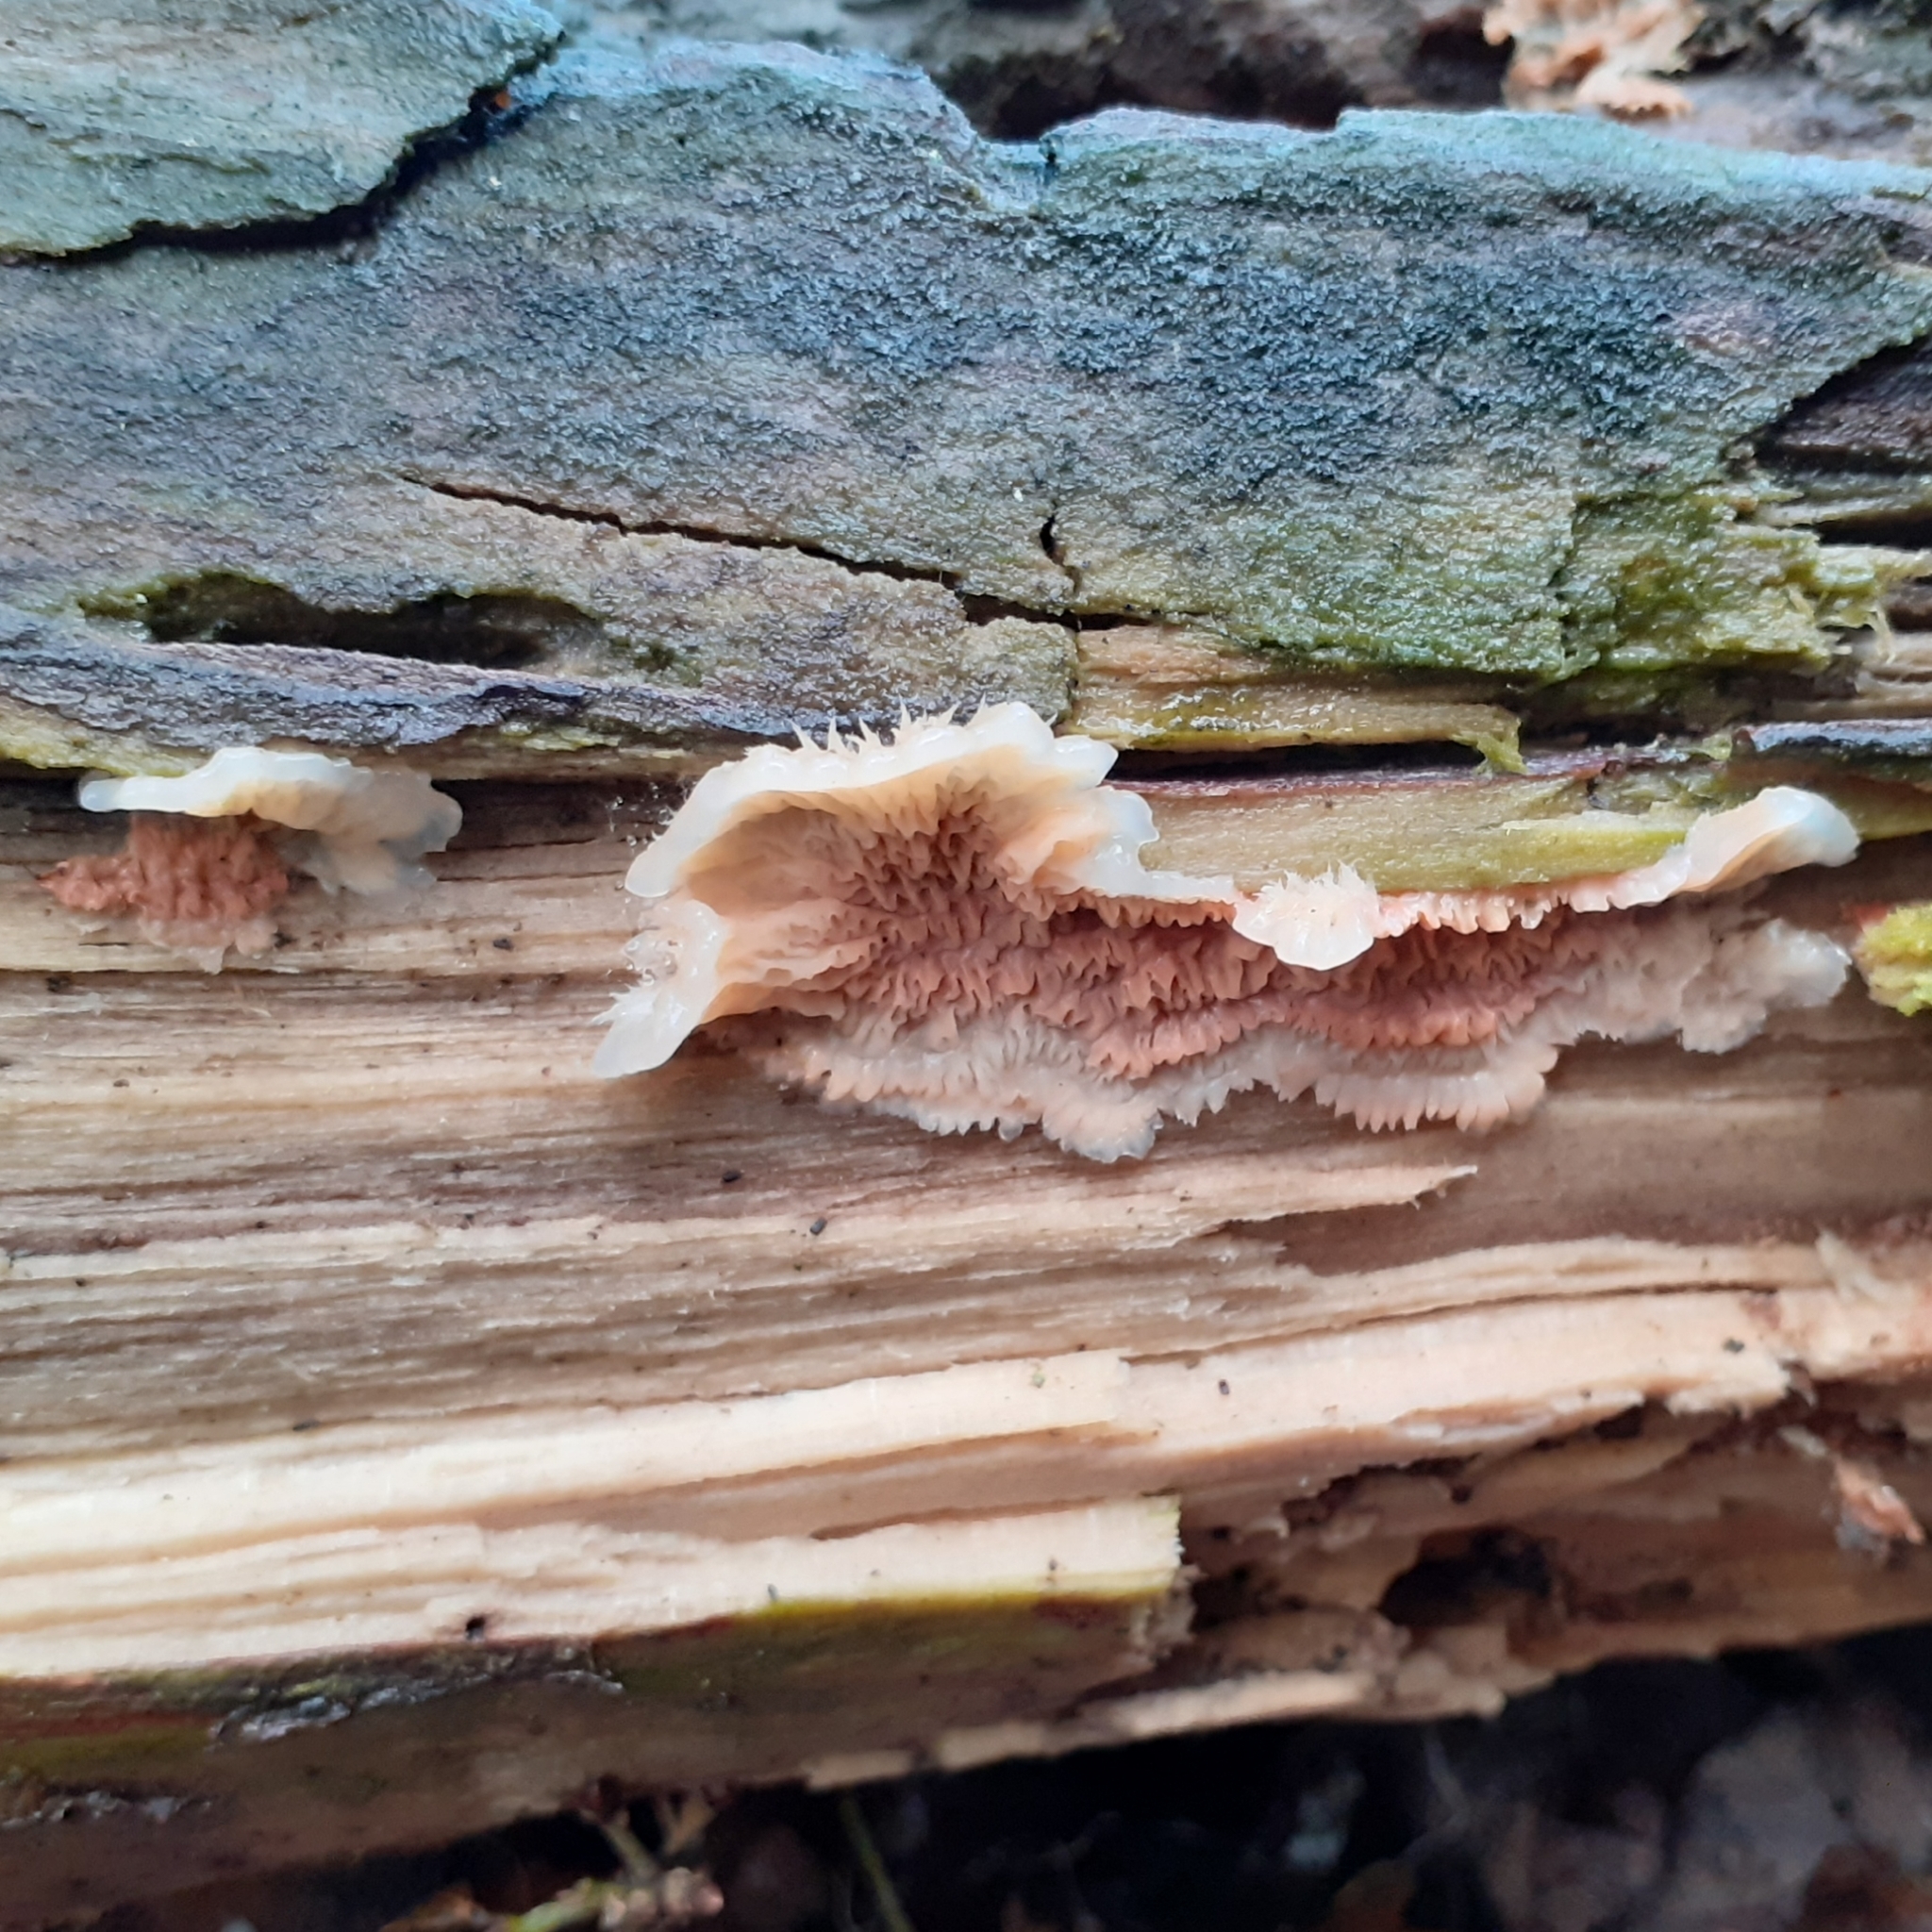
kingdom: Fungi
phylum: Basidiomycota
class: Agaricomycetes
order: Polyporales
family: Meruliaceae
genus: Phlebia
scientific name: Phlebia tremellosa
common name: Jelly rot
